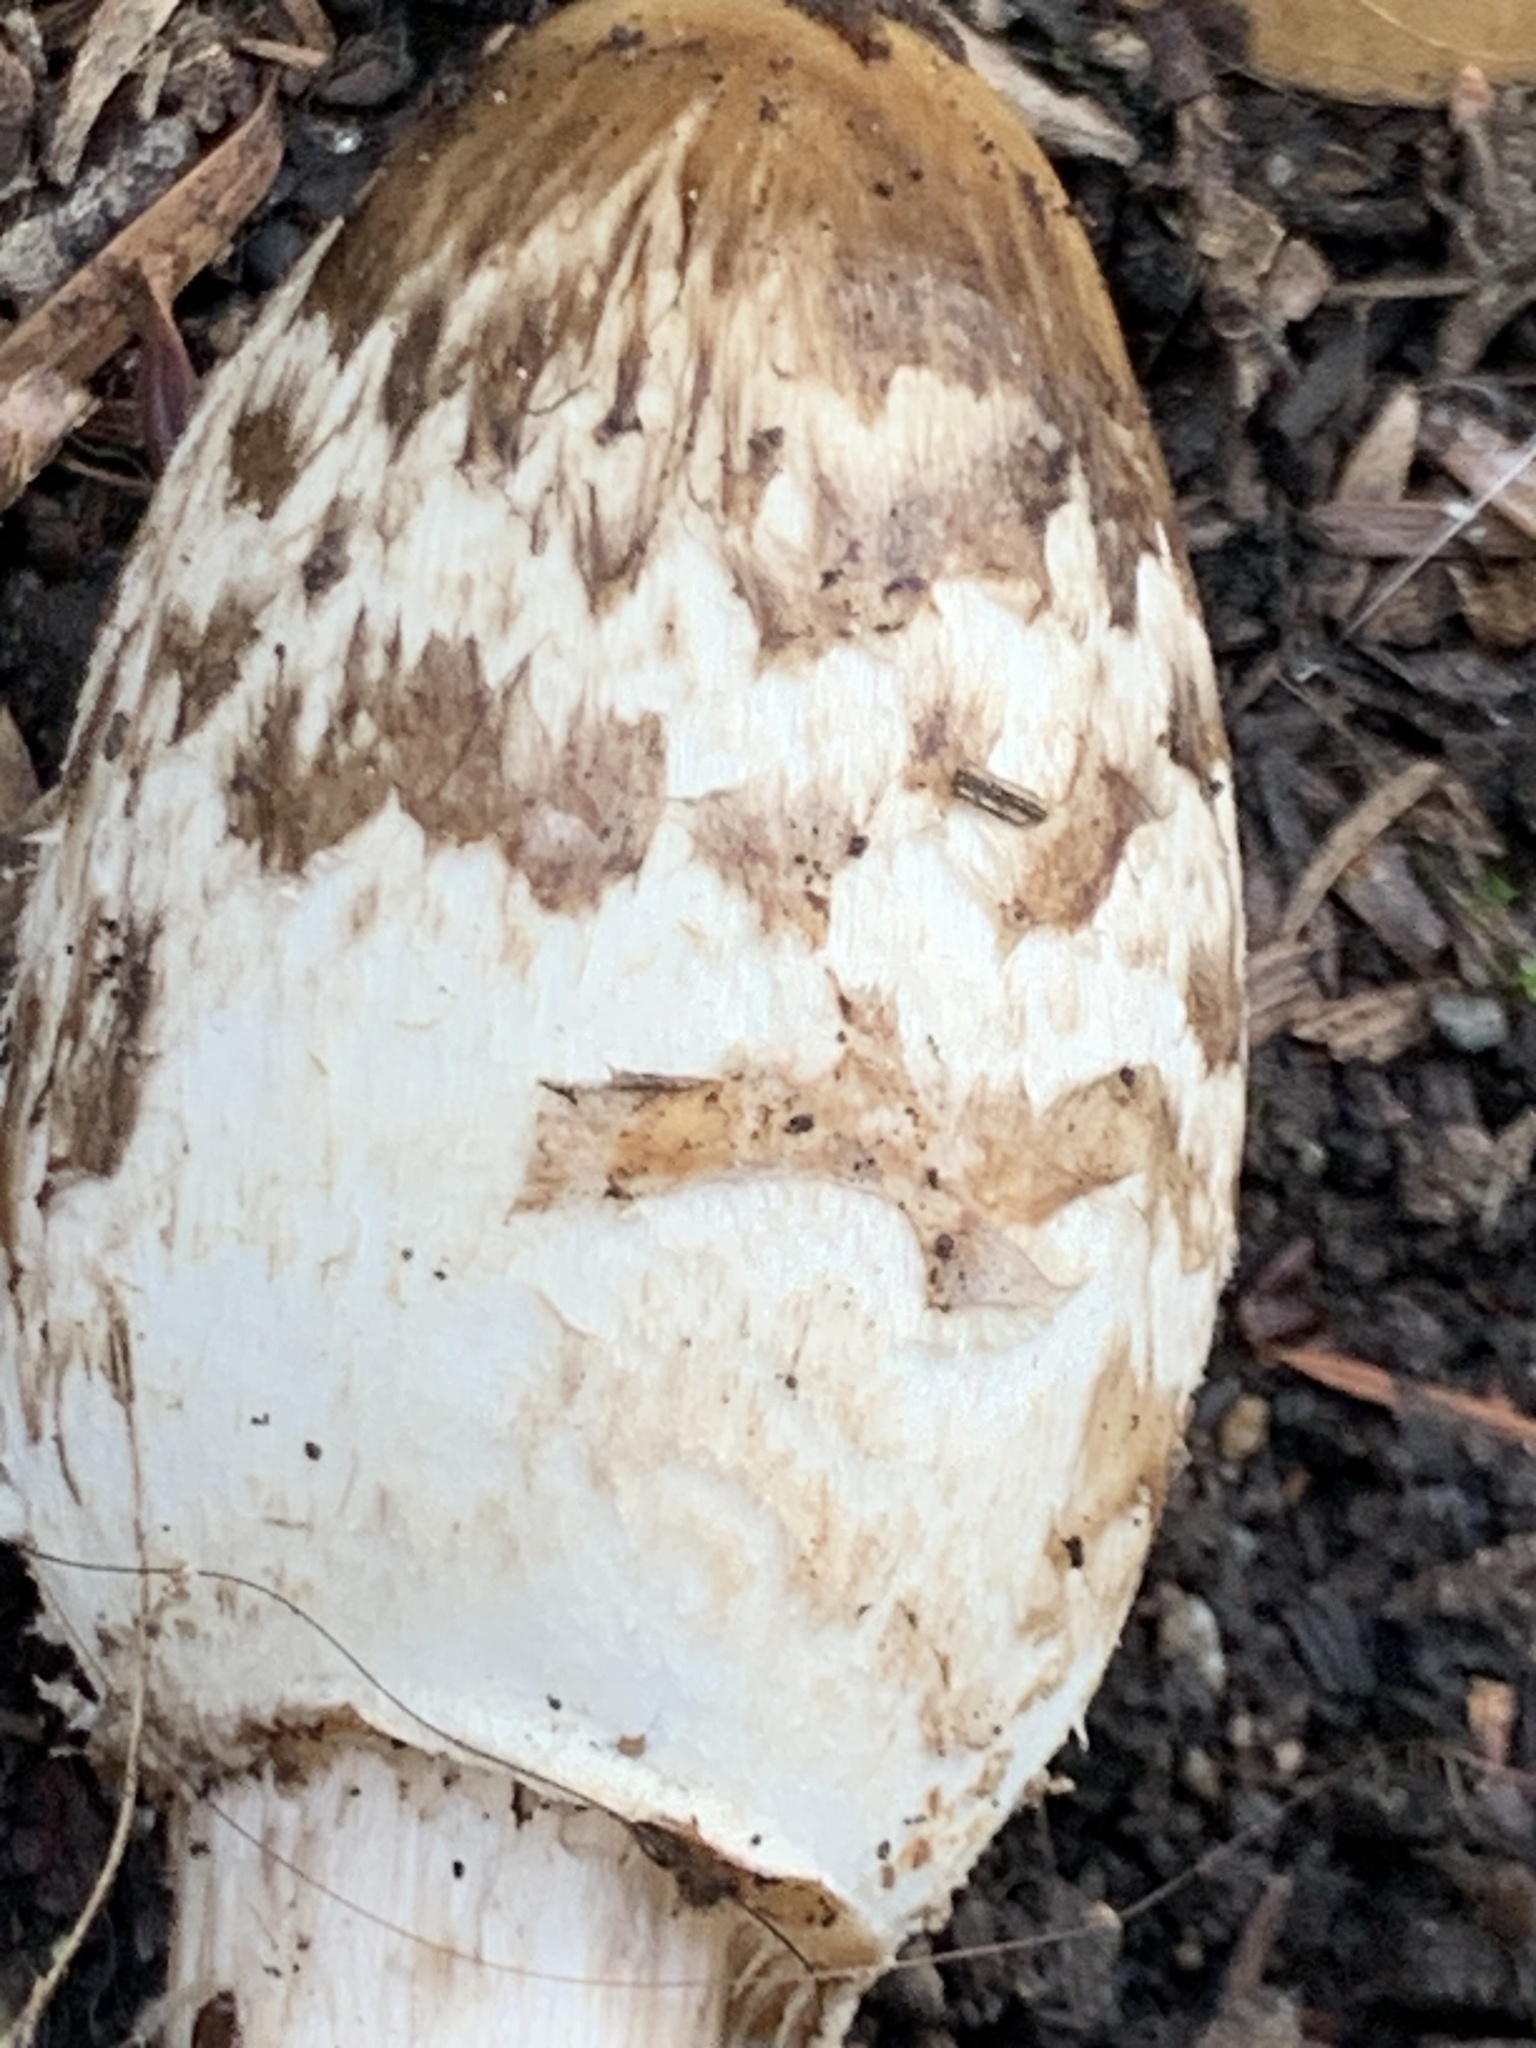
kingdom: Fungi
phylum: Basidiomycota
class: Agaricomycetes
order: Agaricales
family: Agaricaceae
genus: Coprinus
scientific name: Coprinus comatus
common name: Lawyer's wig
